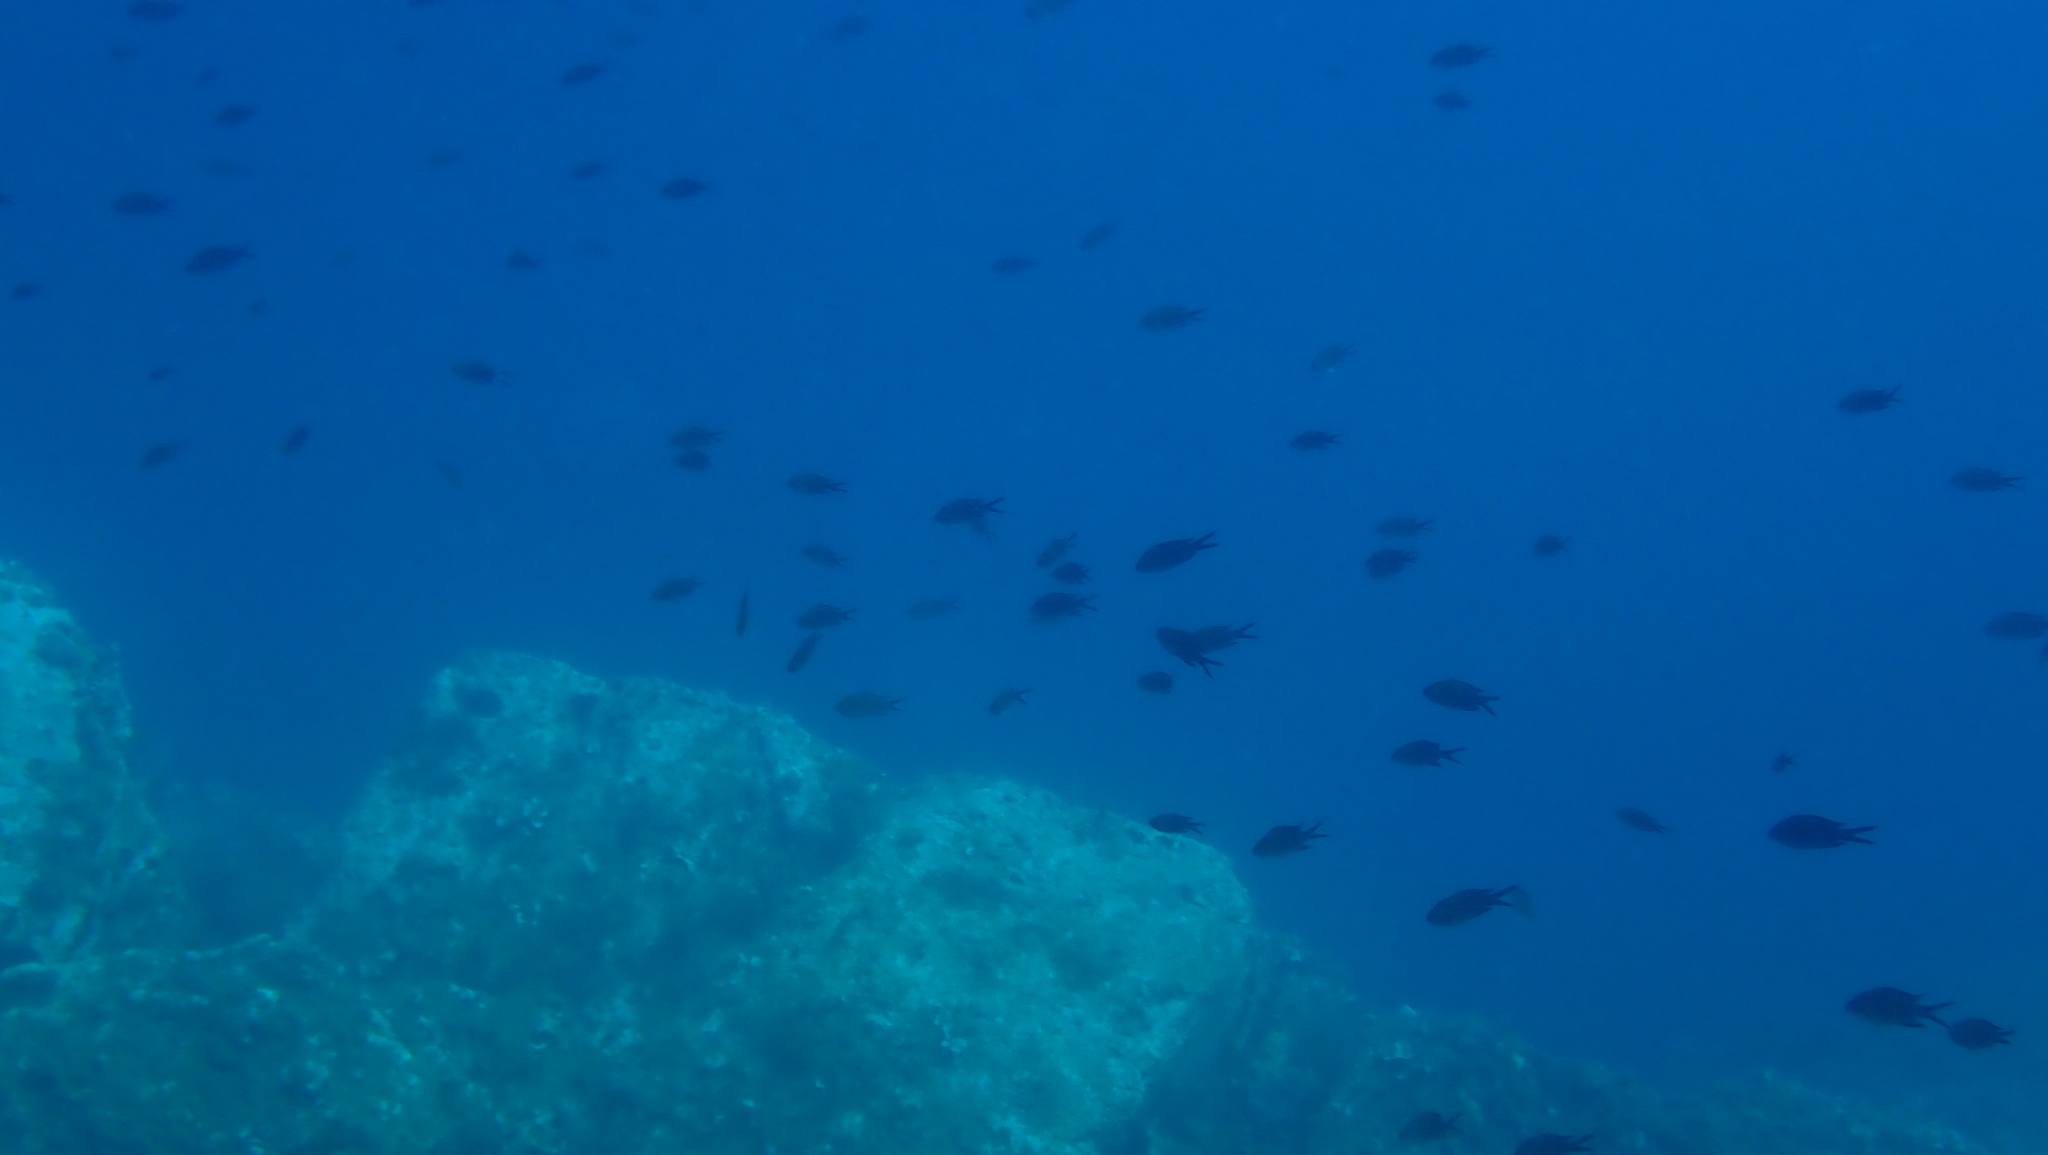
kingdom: Animalia
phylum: Chordata
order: Perciformes
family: Pomacentridae
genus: Chromis
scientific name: Chromis chromis
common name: Damselfish
